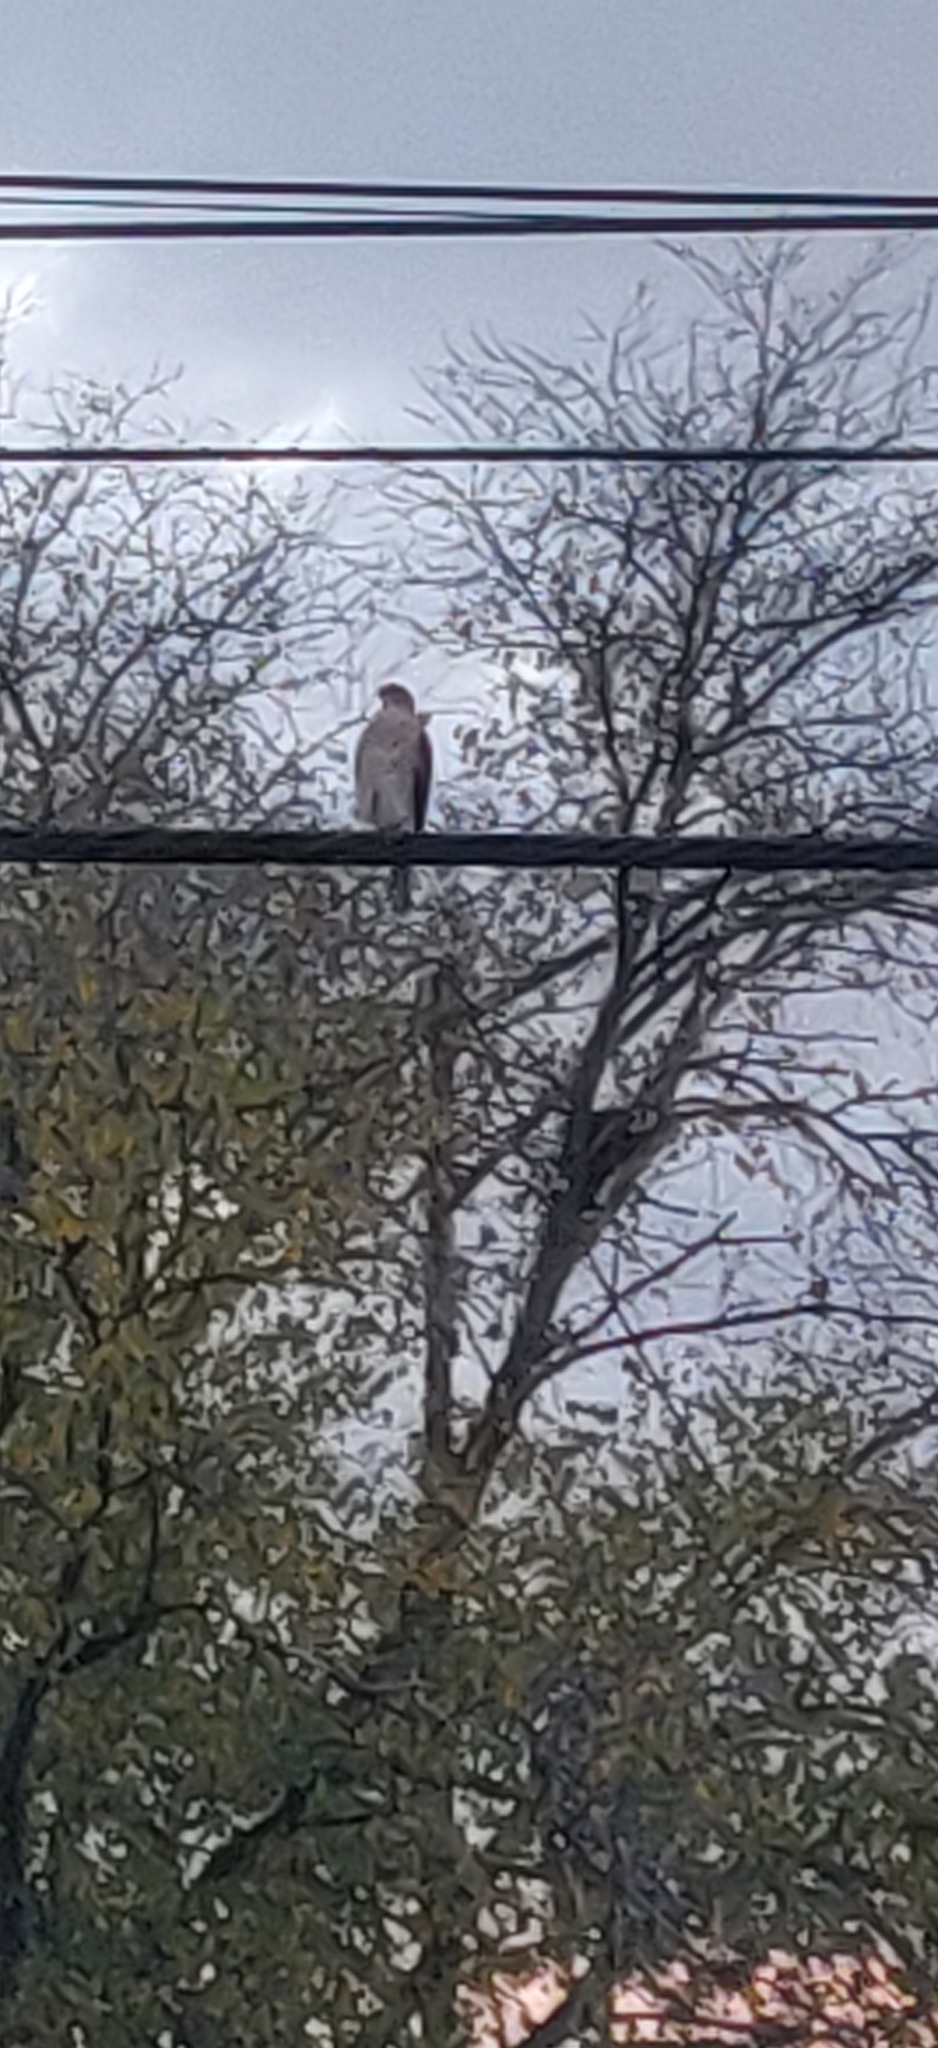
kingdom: Animalia
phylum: Chordata
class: Aves
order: Accipitriformes
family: Accipitridae
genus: Accipiter
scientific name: Accipiter cooperii
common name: Cooper's hawk
